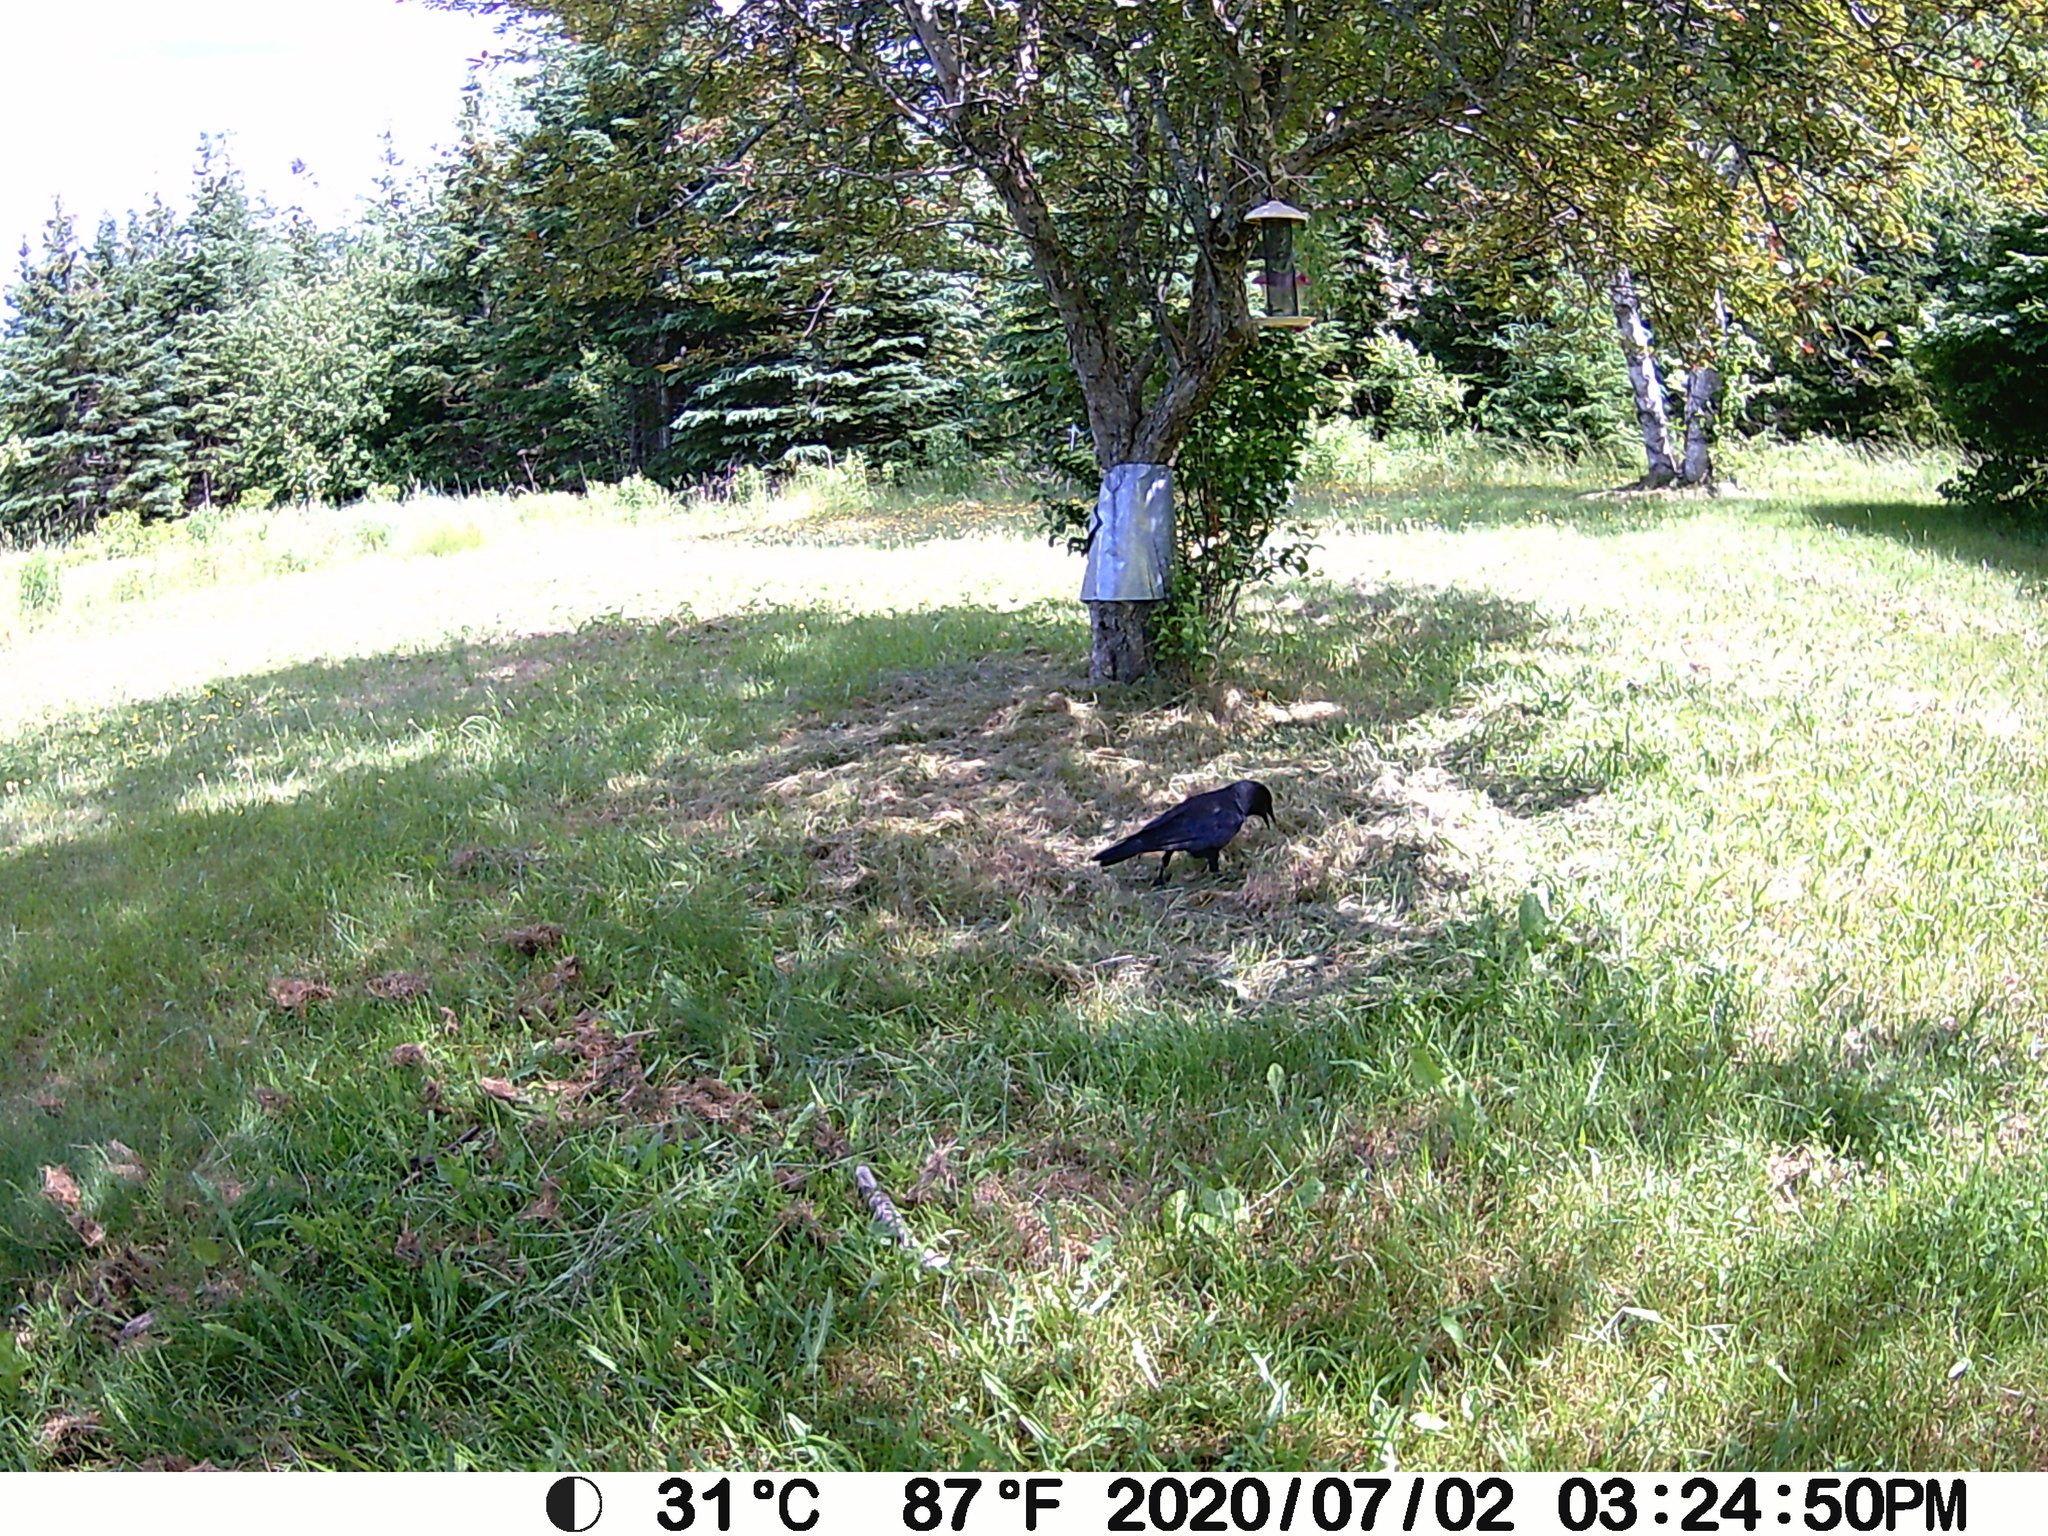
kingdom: Animalia
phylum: Chordata
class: Aves
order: Passeriformes
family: Corvidae
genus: Corvus
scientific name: Corvus brachyrhynchos
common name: American crow
